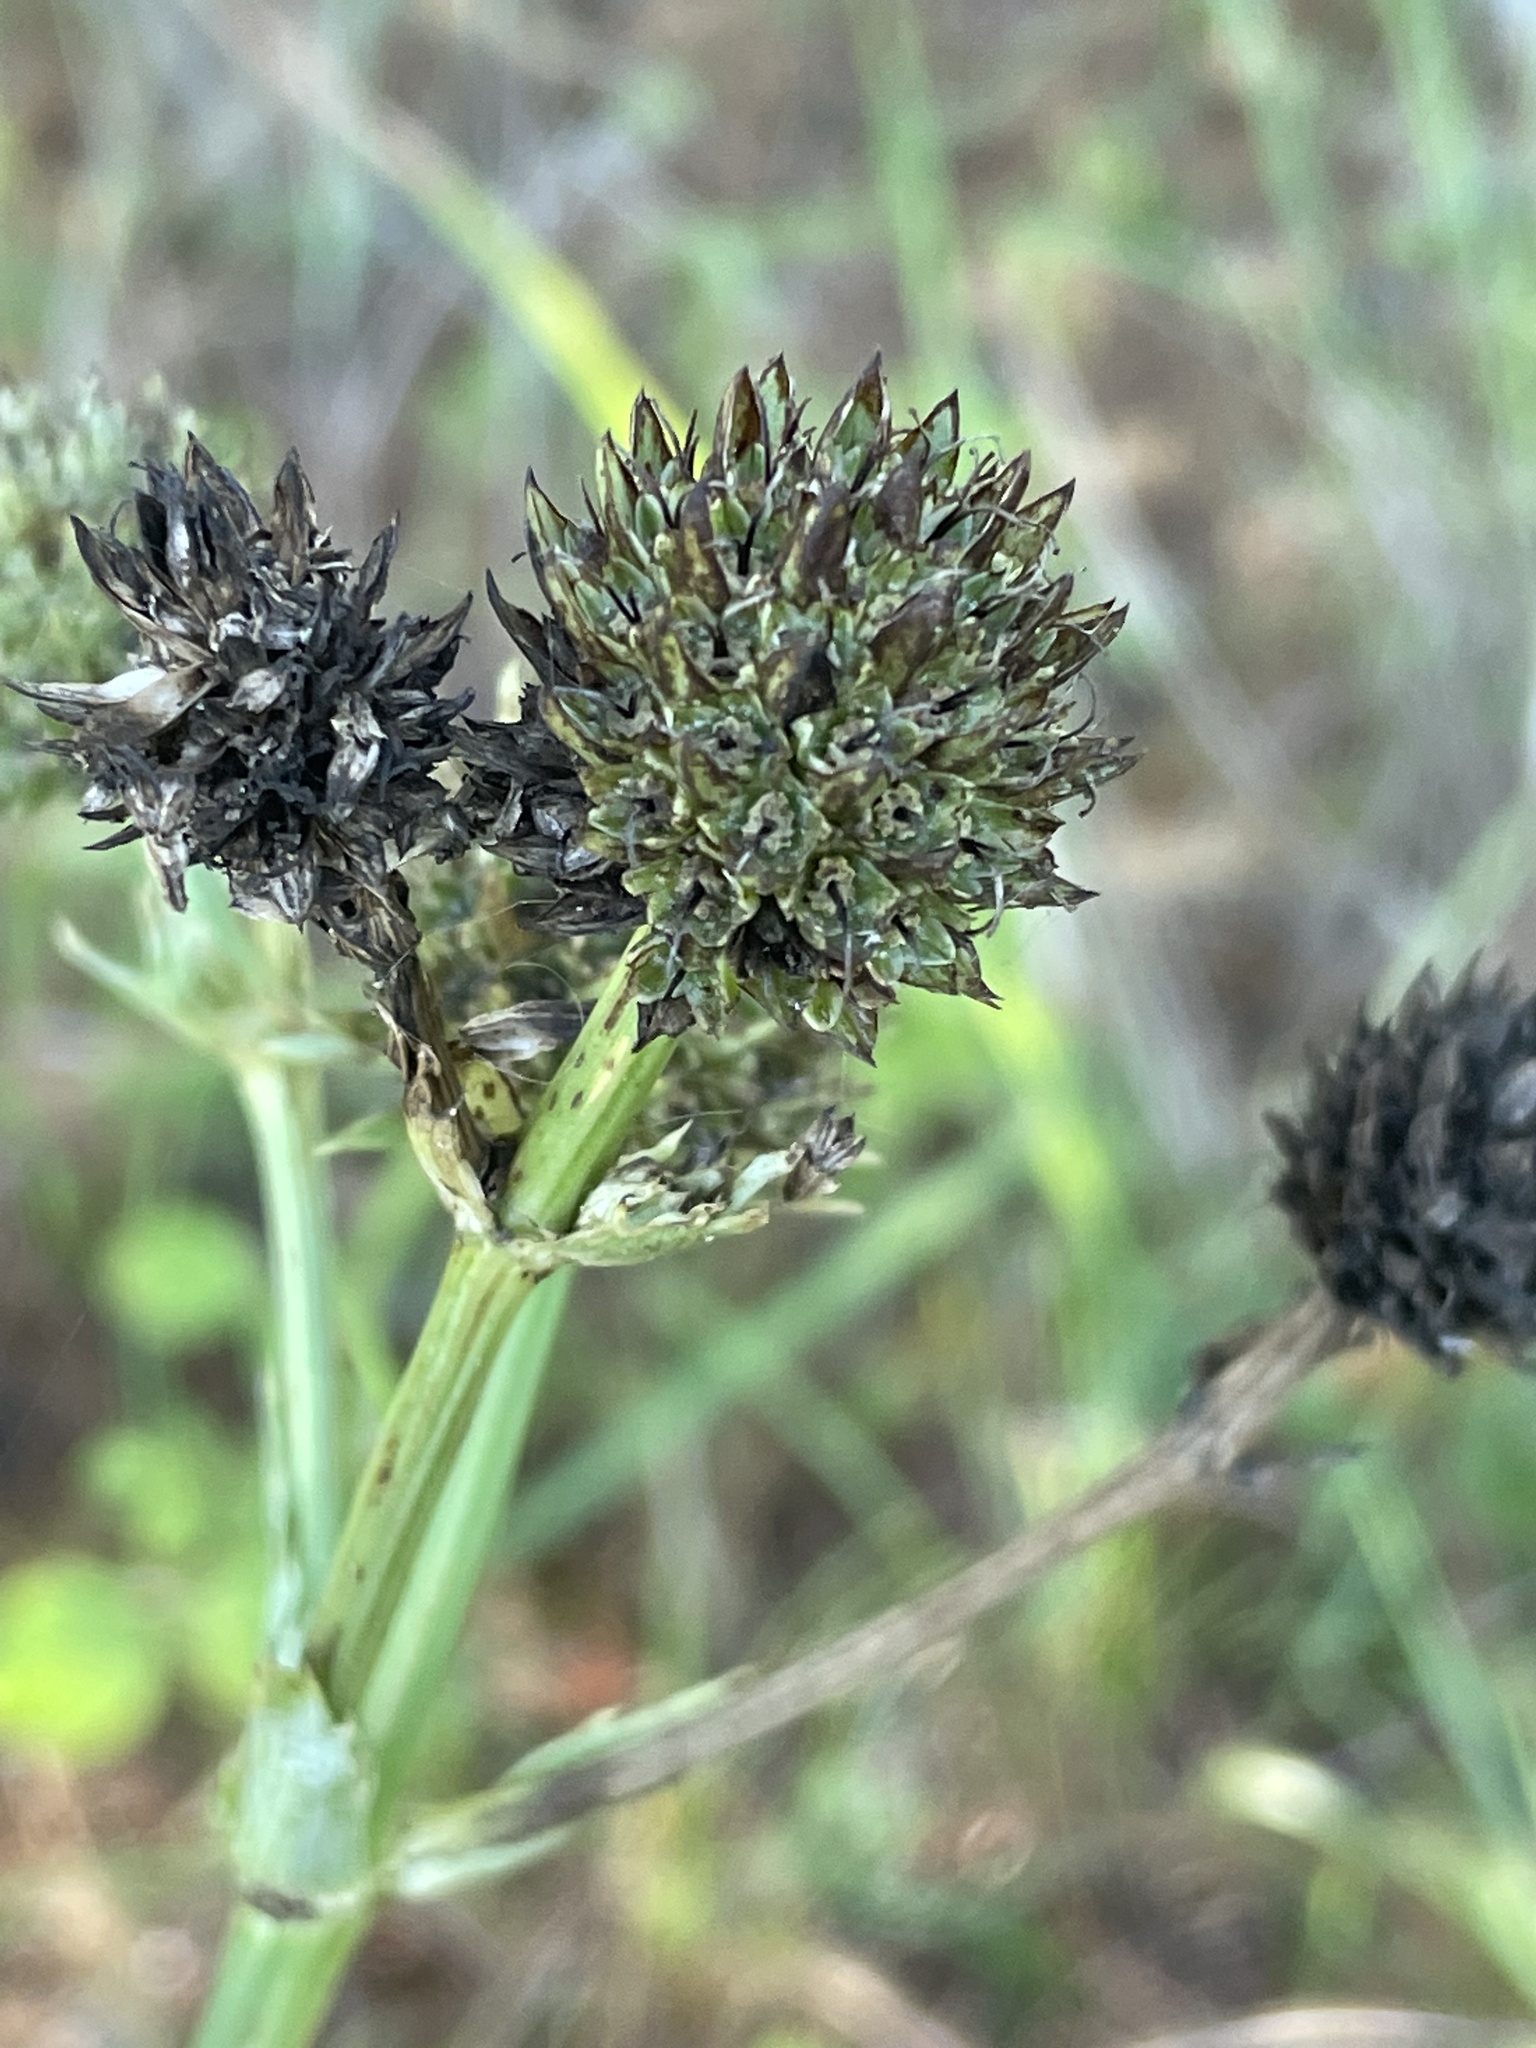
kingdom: Plantae
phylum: Tracheophyta
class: Magnoliopsida
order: Apiales
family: Apiaceae
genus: Eryngium
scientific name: Eryngium yuccifolium
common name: Button eryngo
